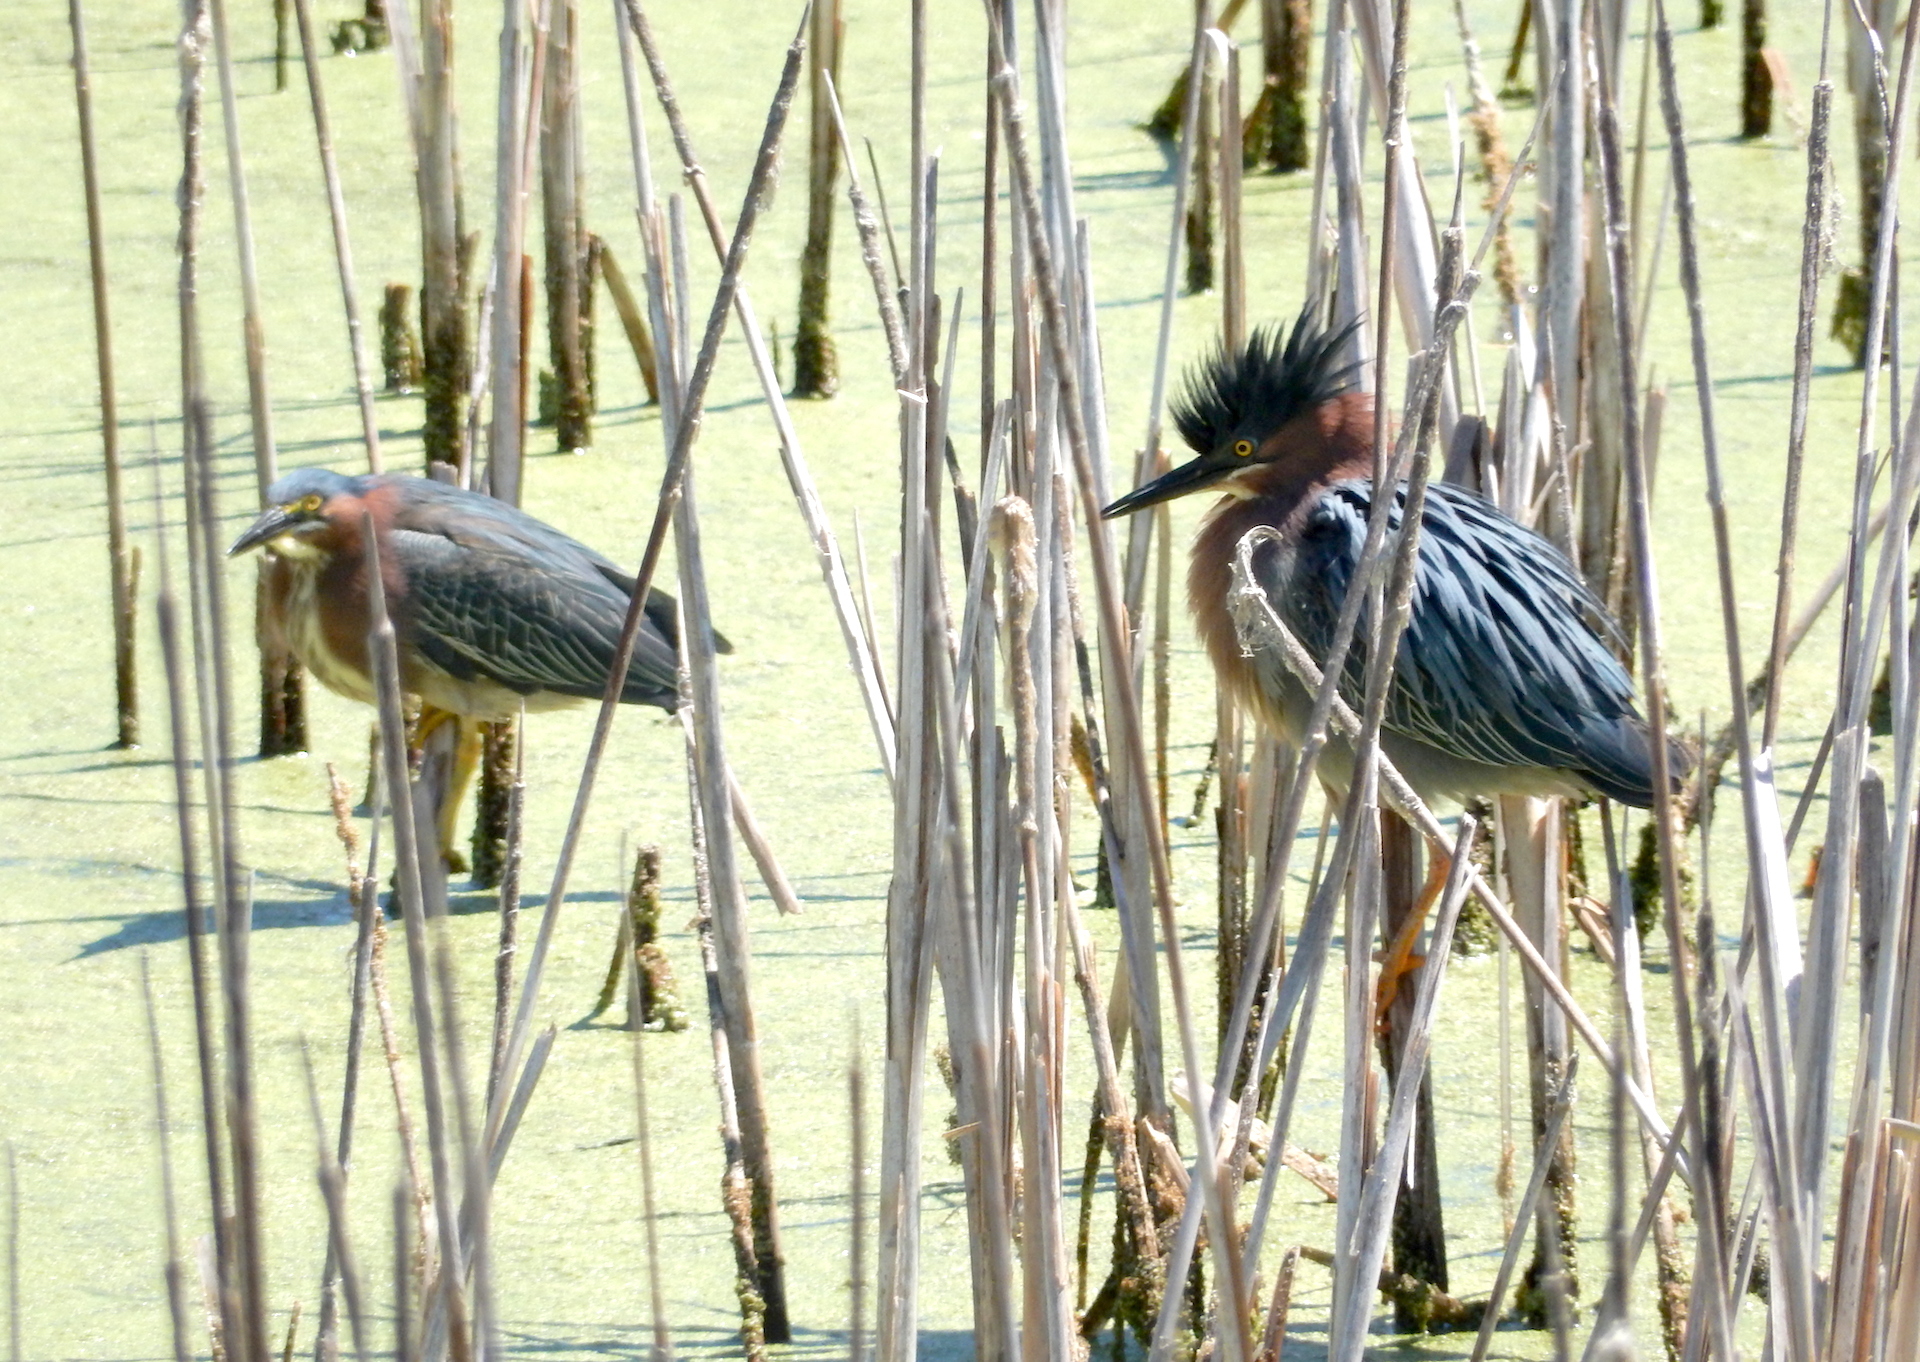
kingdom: Animalia
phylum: Chordata
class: Aves
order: Pelecaniformes
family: Ardeidae
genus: Butorides
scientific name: Butorides virescens
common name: Green heron
